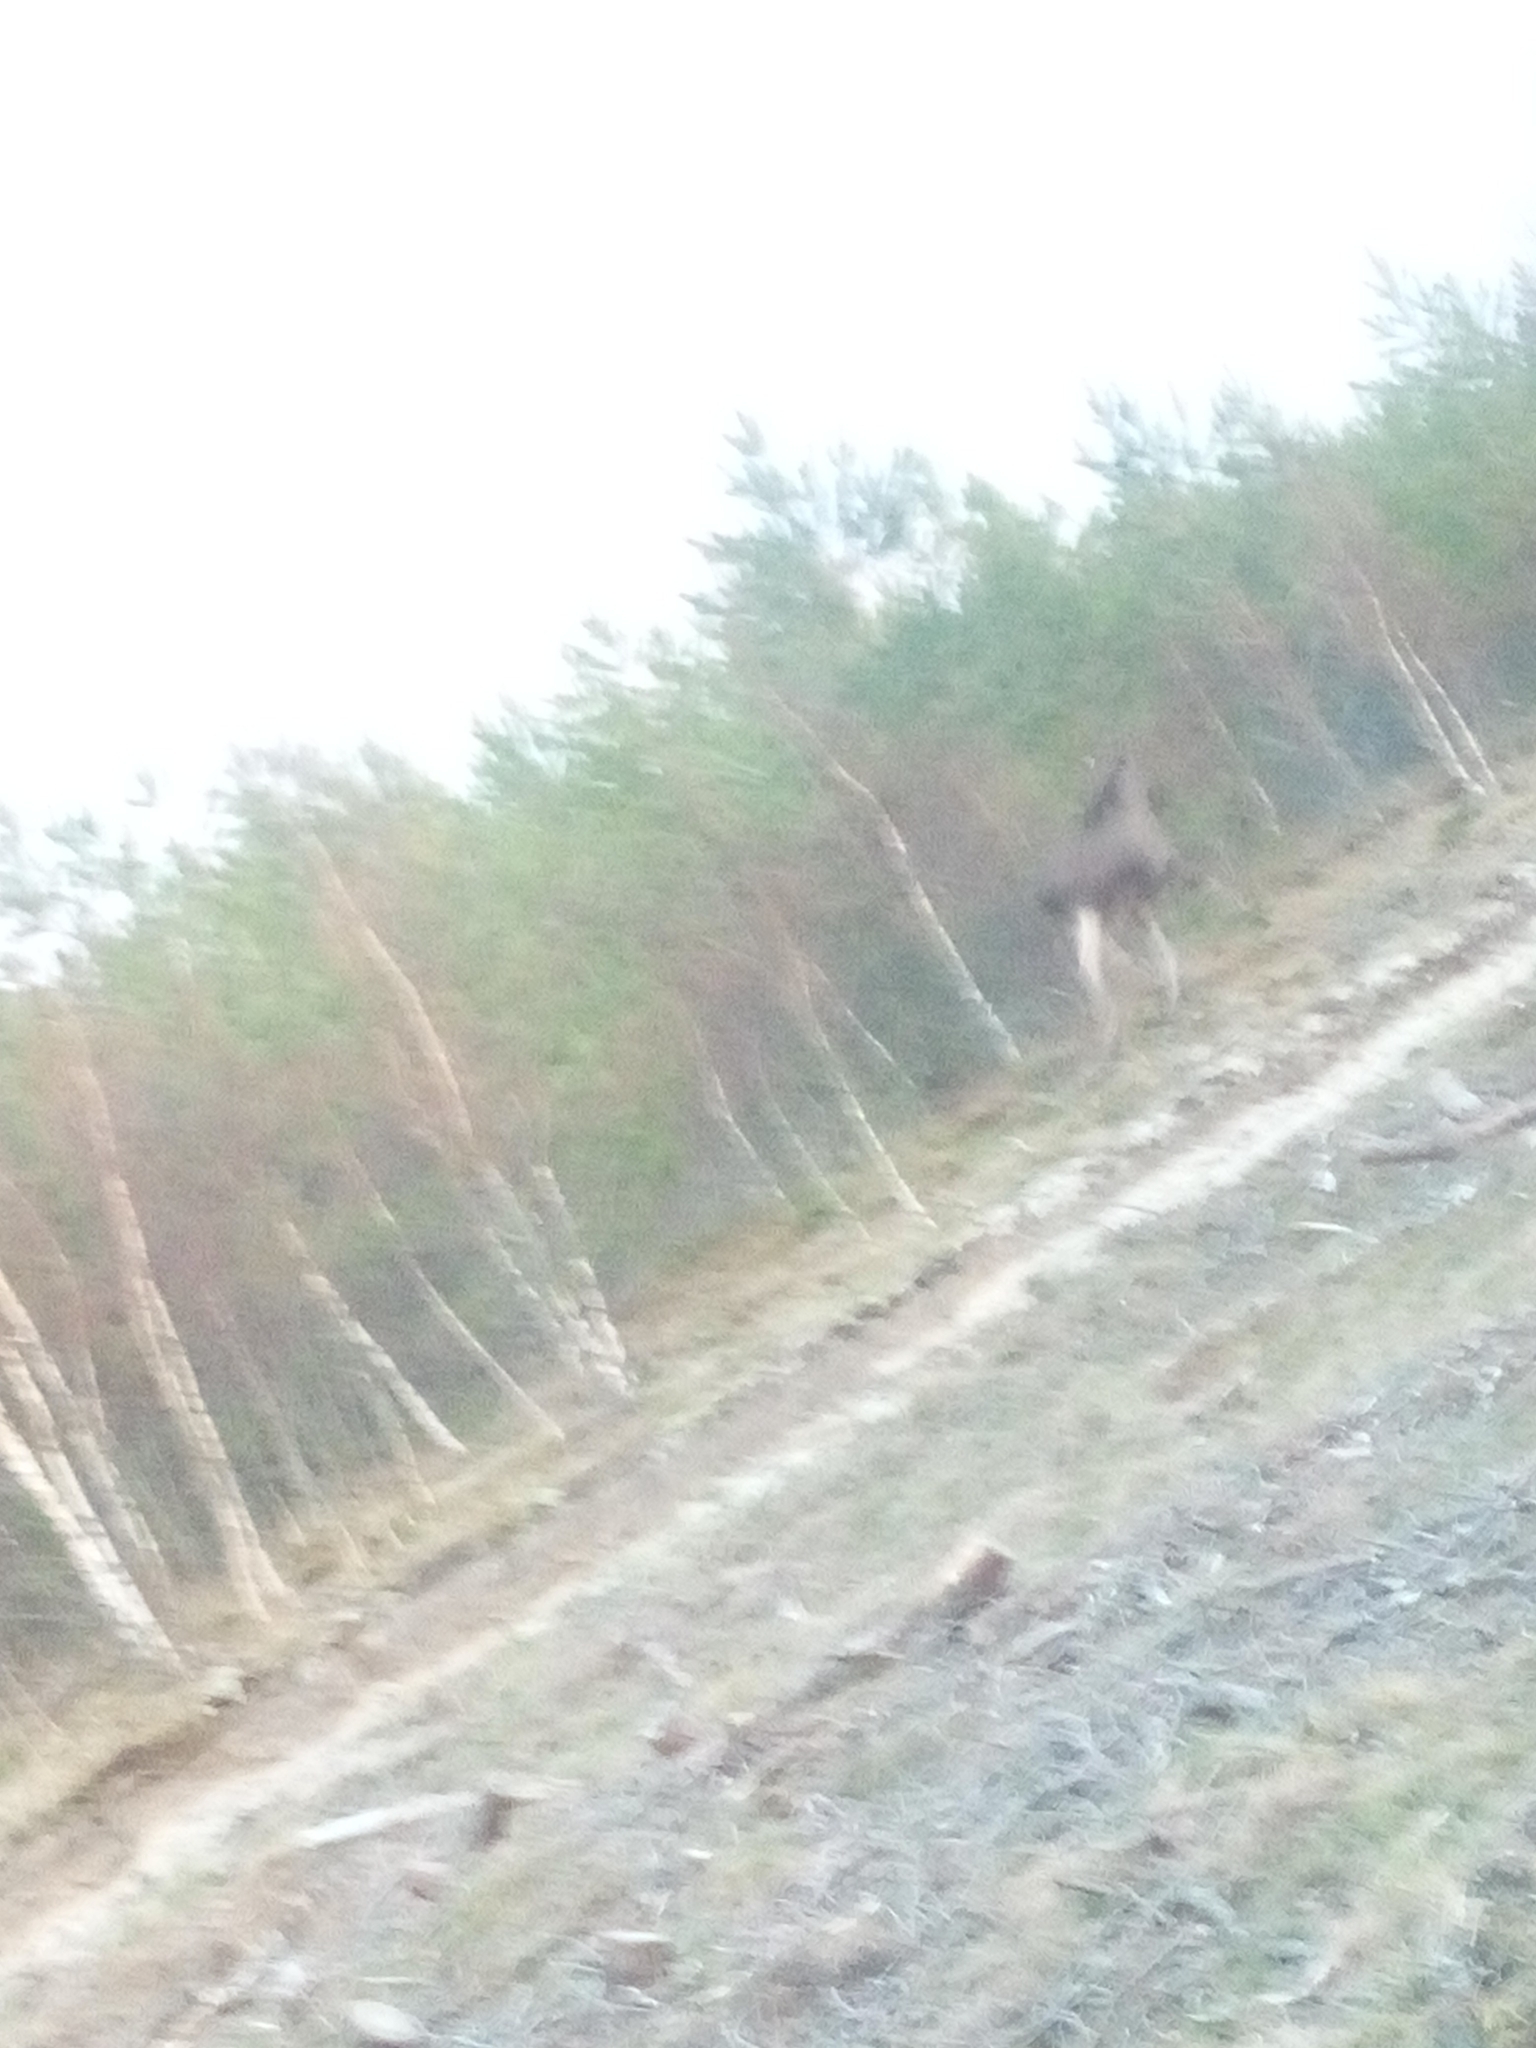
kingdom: Animalia
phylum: Chordata
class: Mammalia
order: Artiodactyla
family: Cervidae
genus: Alces
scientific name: Alces alces
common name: Moose
